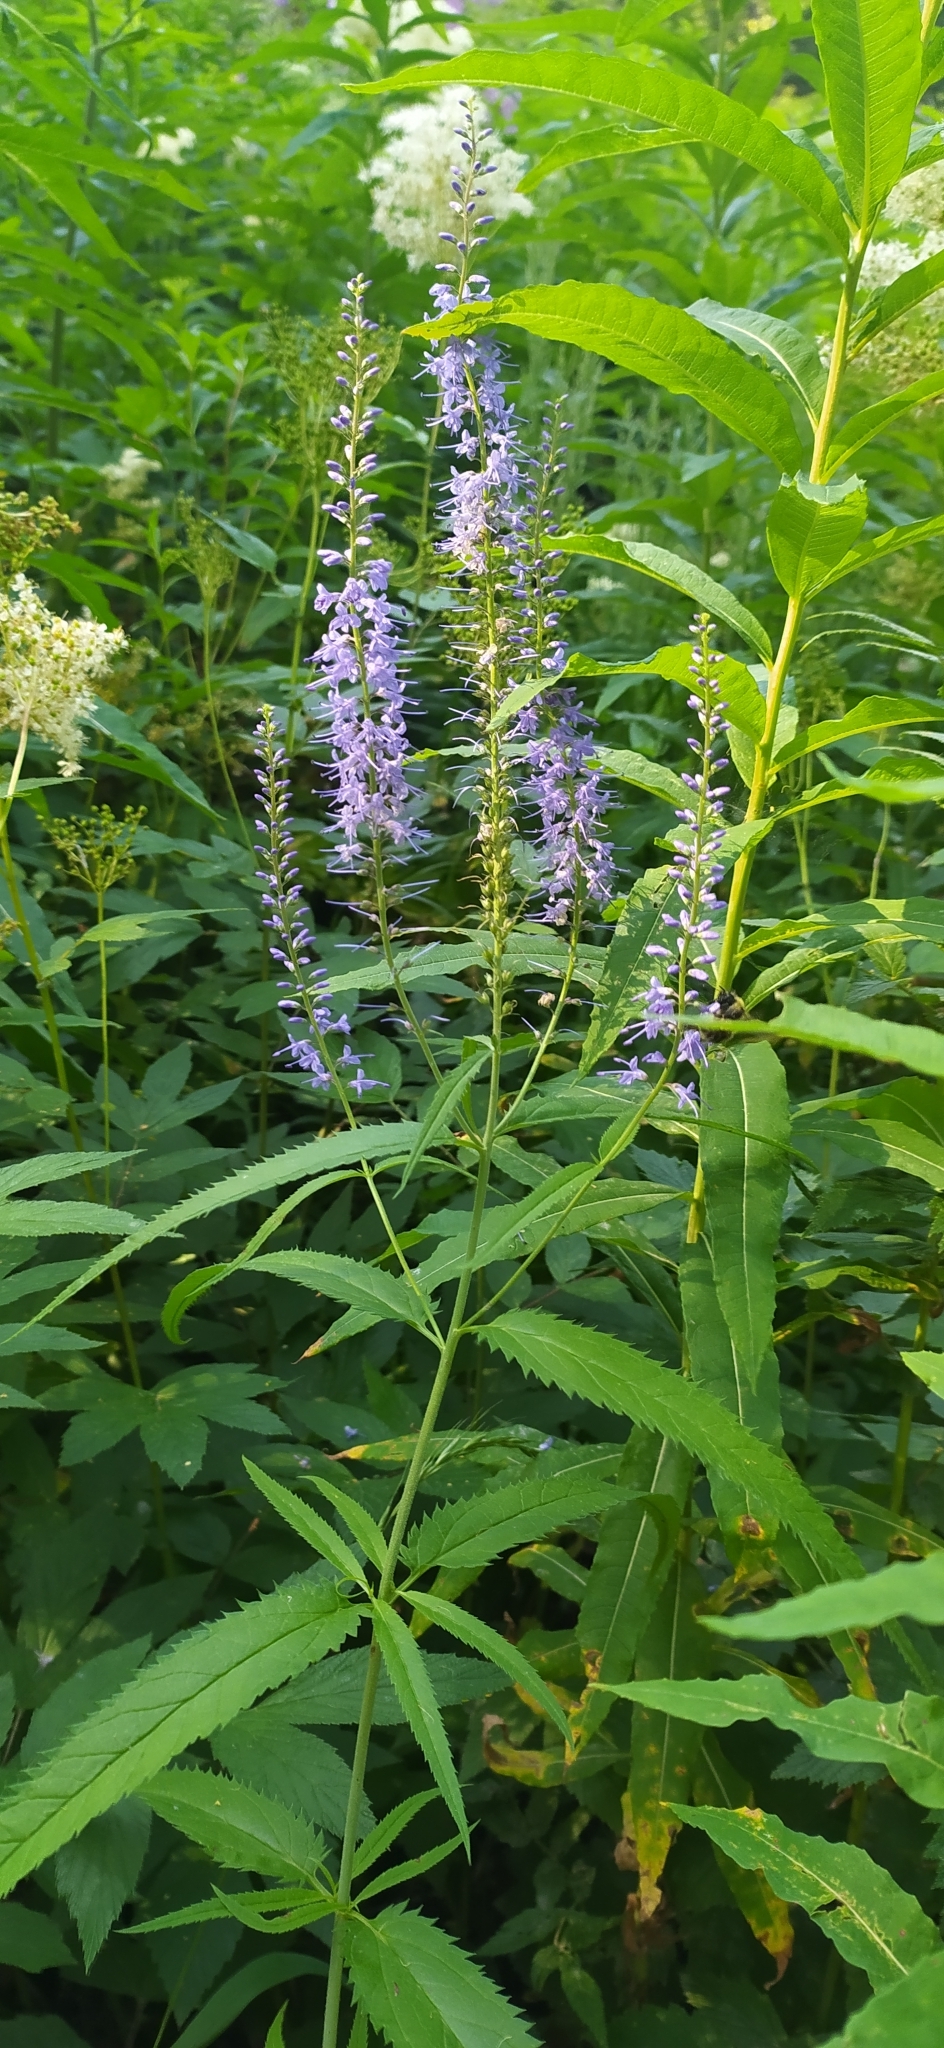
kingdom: Plantae
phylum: Tracheophyta
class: Magnoliopsida
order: Lamiales
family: Plantaginaceae
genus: Veronica
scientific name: Veronica longifolia
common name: Garden speedwell
